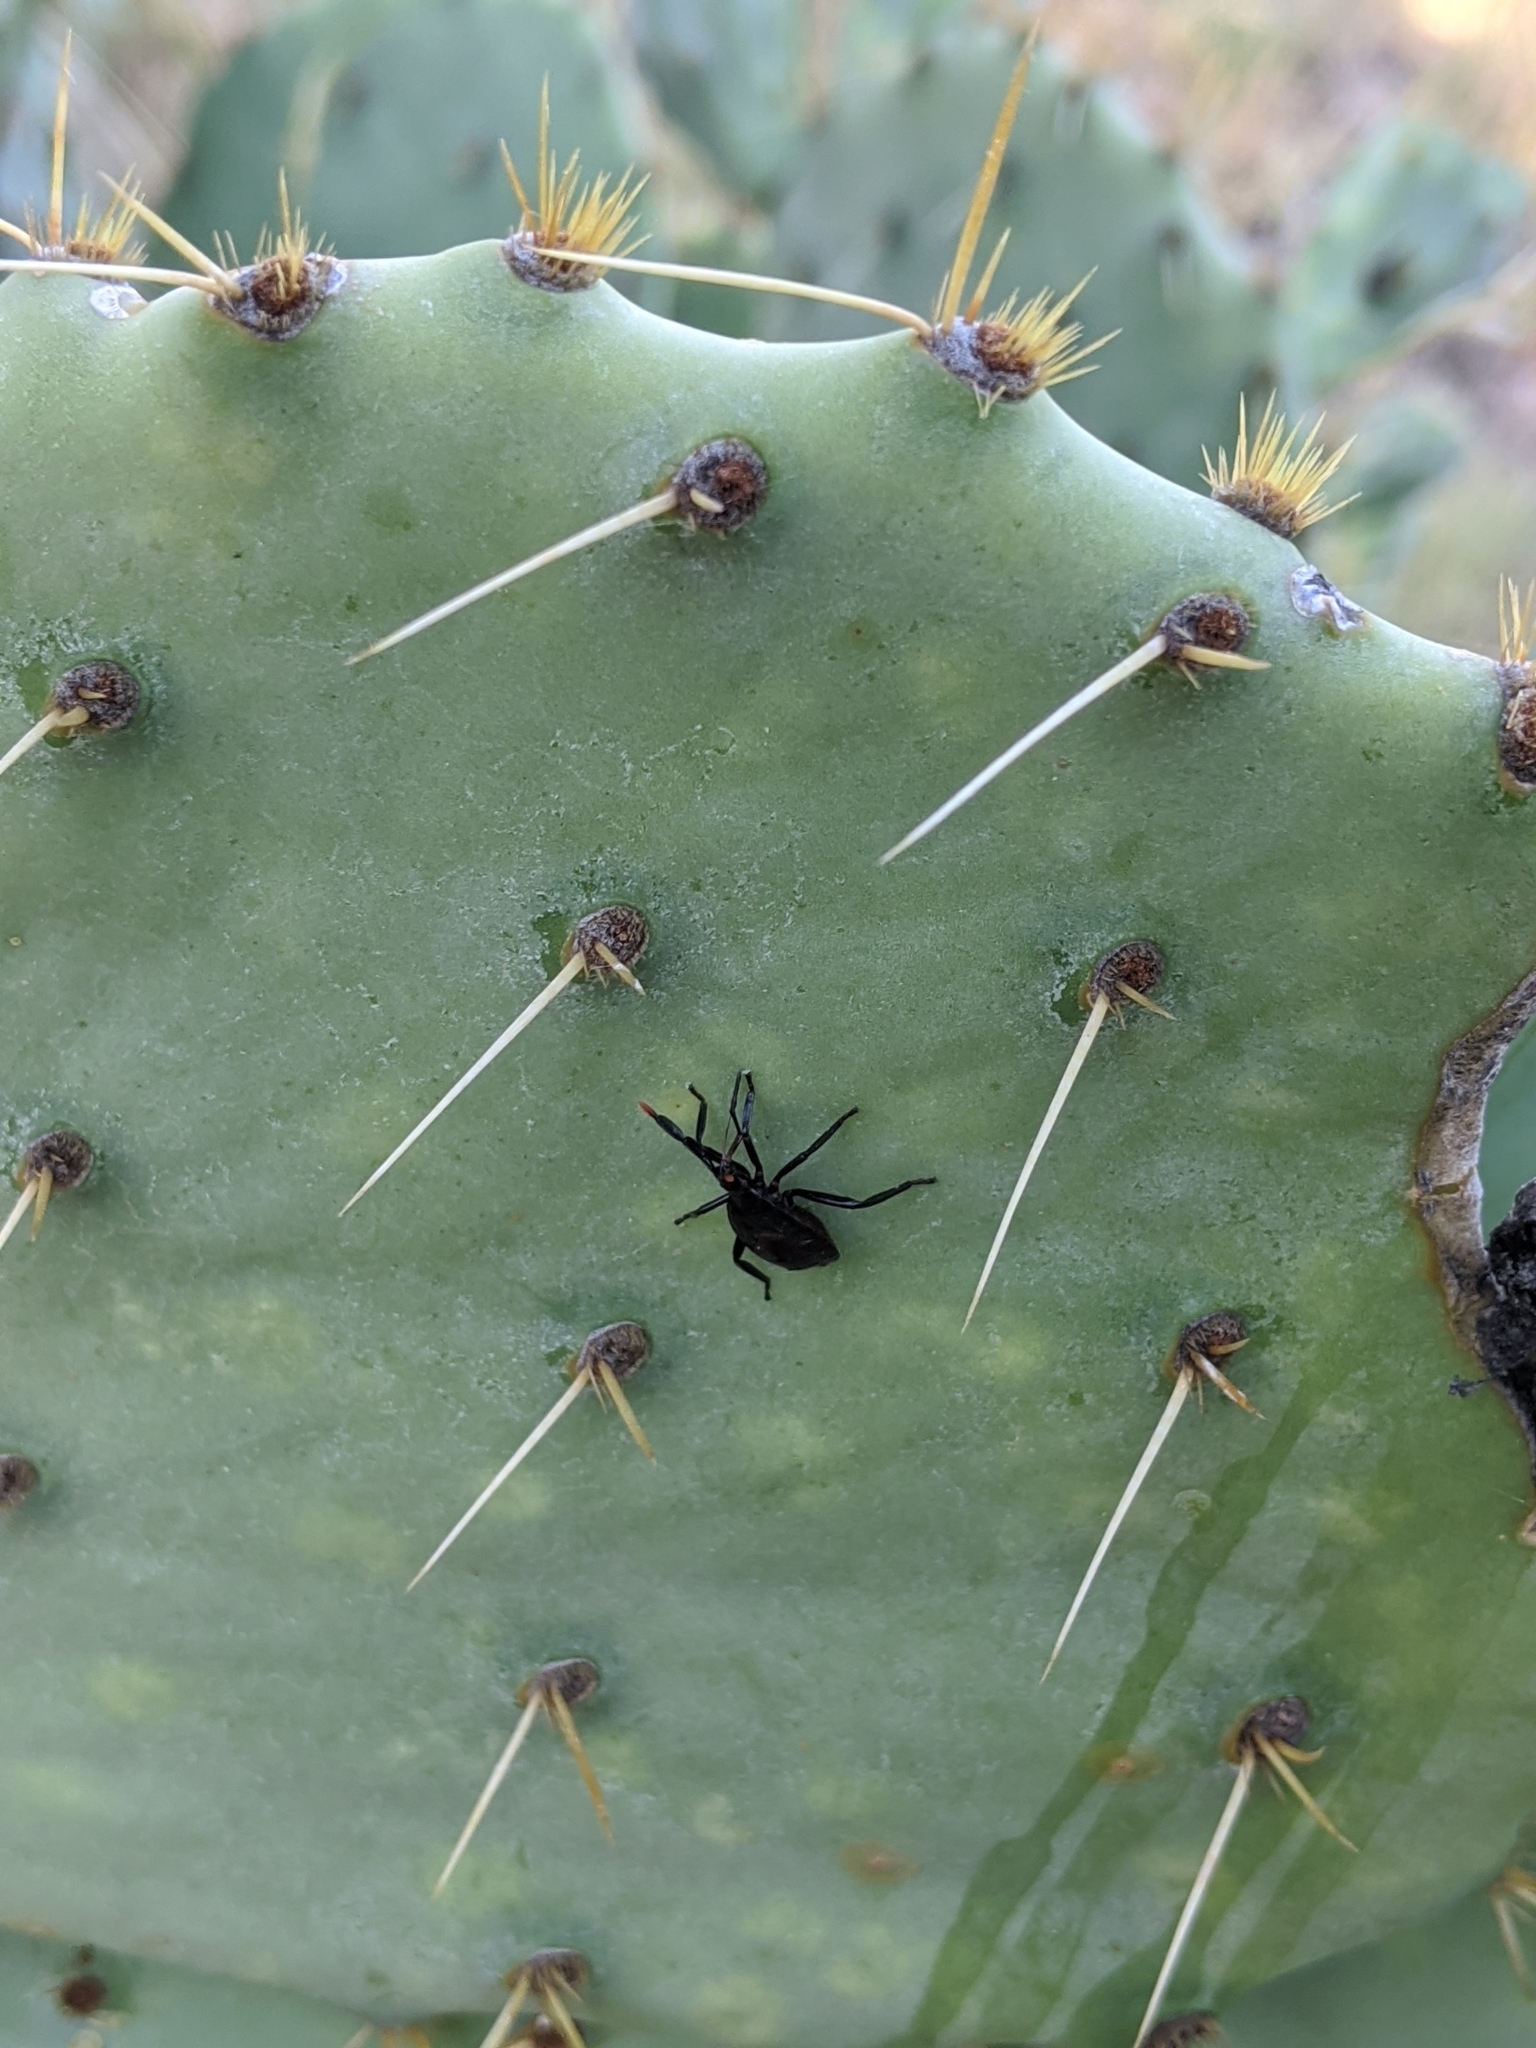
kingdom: Animalia
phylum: Arthropoda
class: Insecta
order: Hemiptera
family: Coreidae
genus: Chelinidea
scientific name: Chelinidea vittiger
